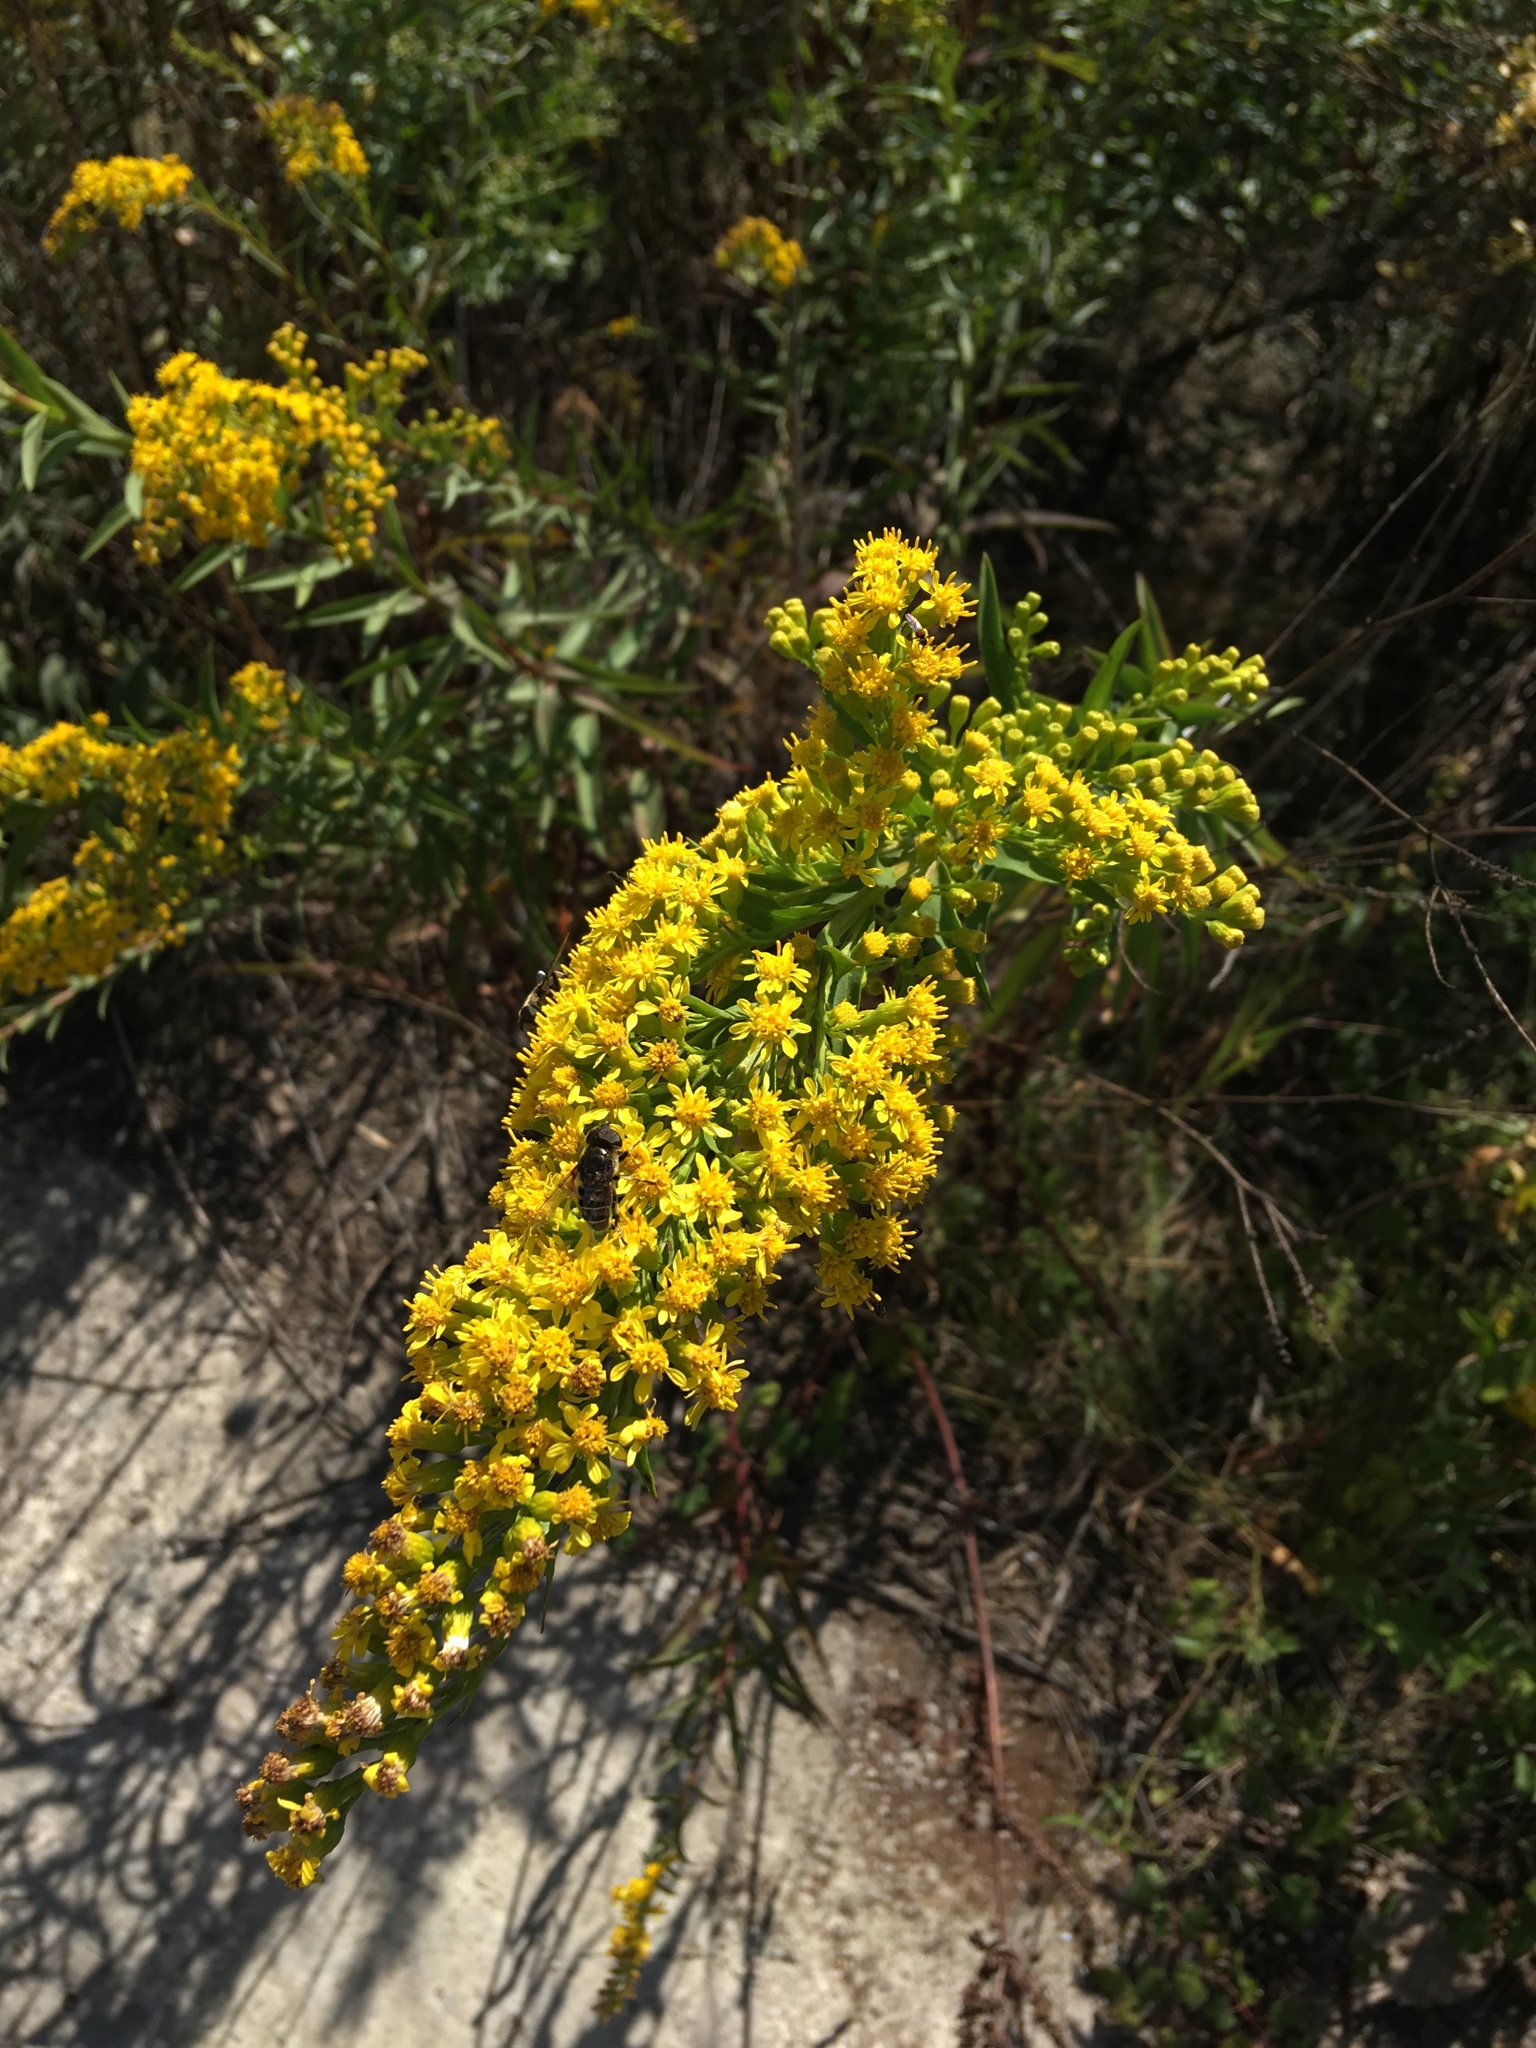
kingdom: Plantae
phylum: Tracheophyta
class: Magnoliopsida
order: Asterales
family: Asteraceae
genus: Solidago
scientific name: Solidago sempervirens
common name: Salt-marsh goldenrod
